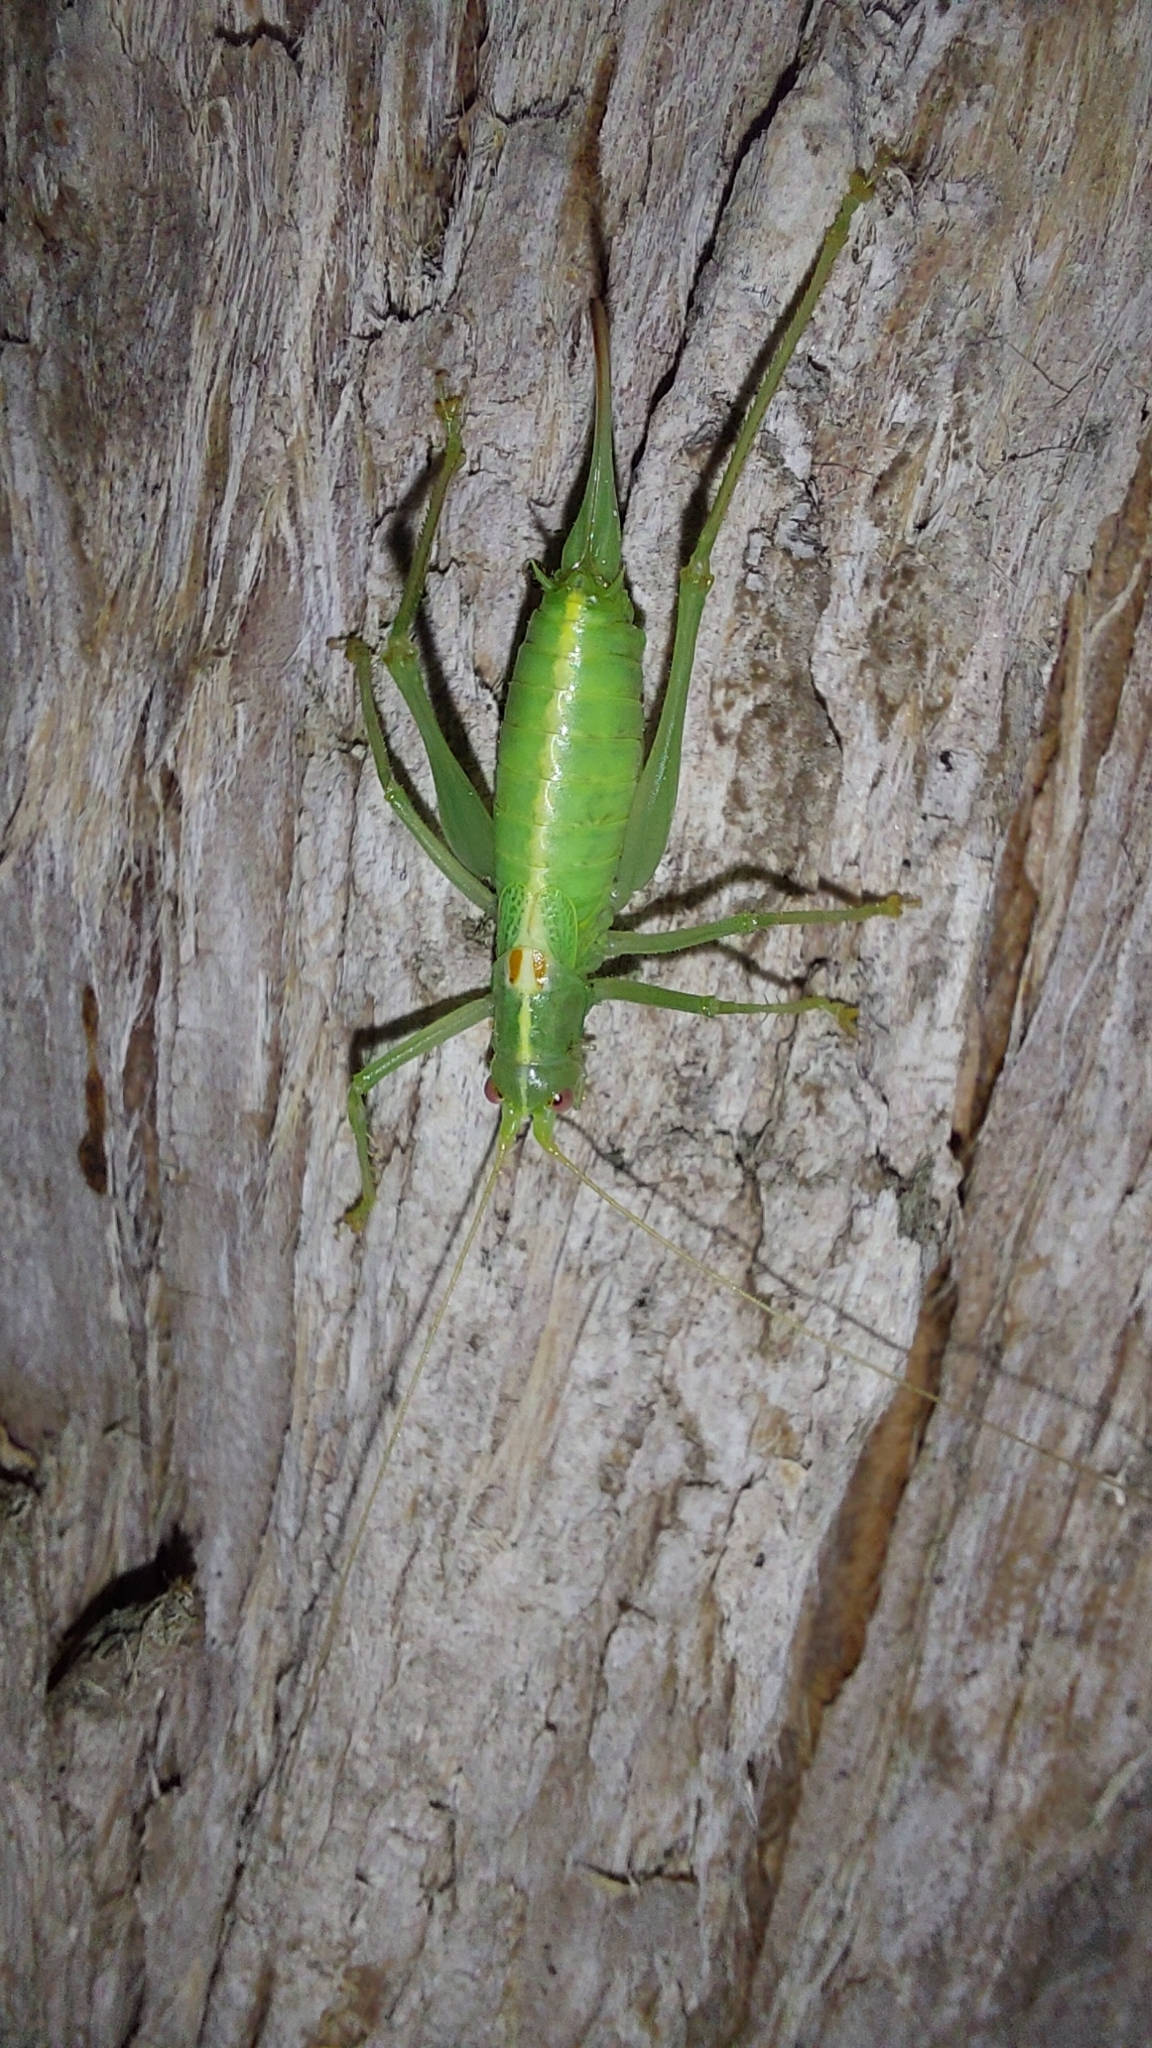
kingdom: Animalia
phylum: Arthropoda
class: Insecta
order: Orthoptera
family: Tettigoniidae
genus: Meconema
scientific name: Meconema meridionale
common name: Southern oak bush-cricket
